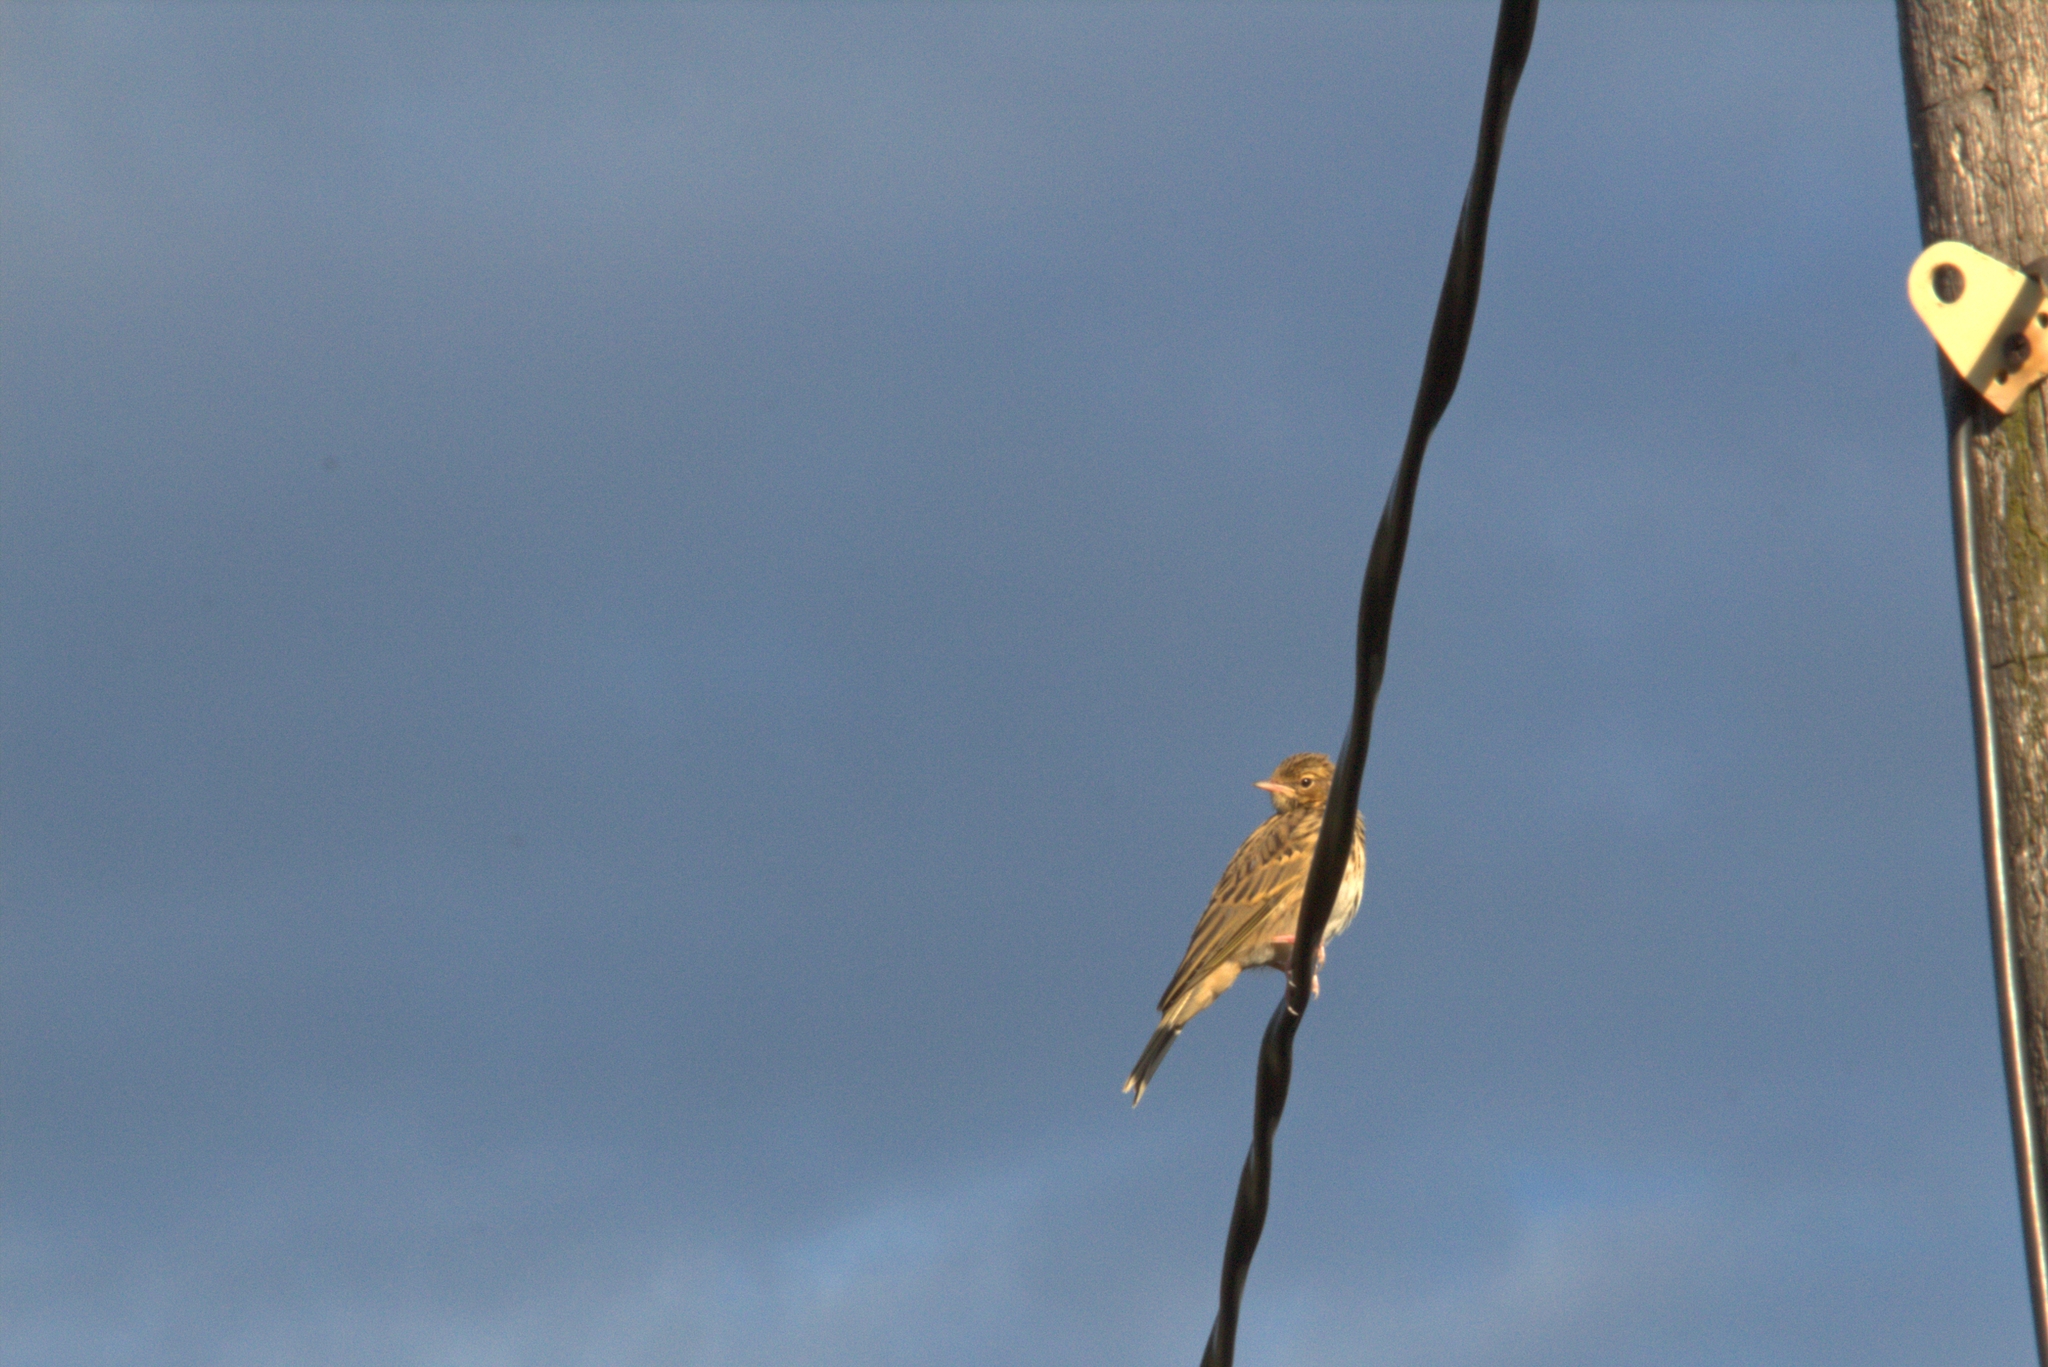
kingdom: Animalia
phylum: Chordata
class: Aves
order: Passeriformes
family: Motacillidae
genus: Anthus
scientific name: Anthus trivialis
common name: Tree pipit
